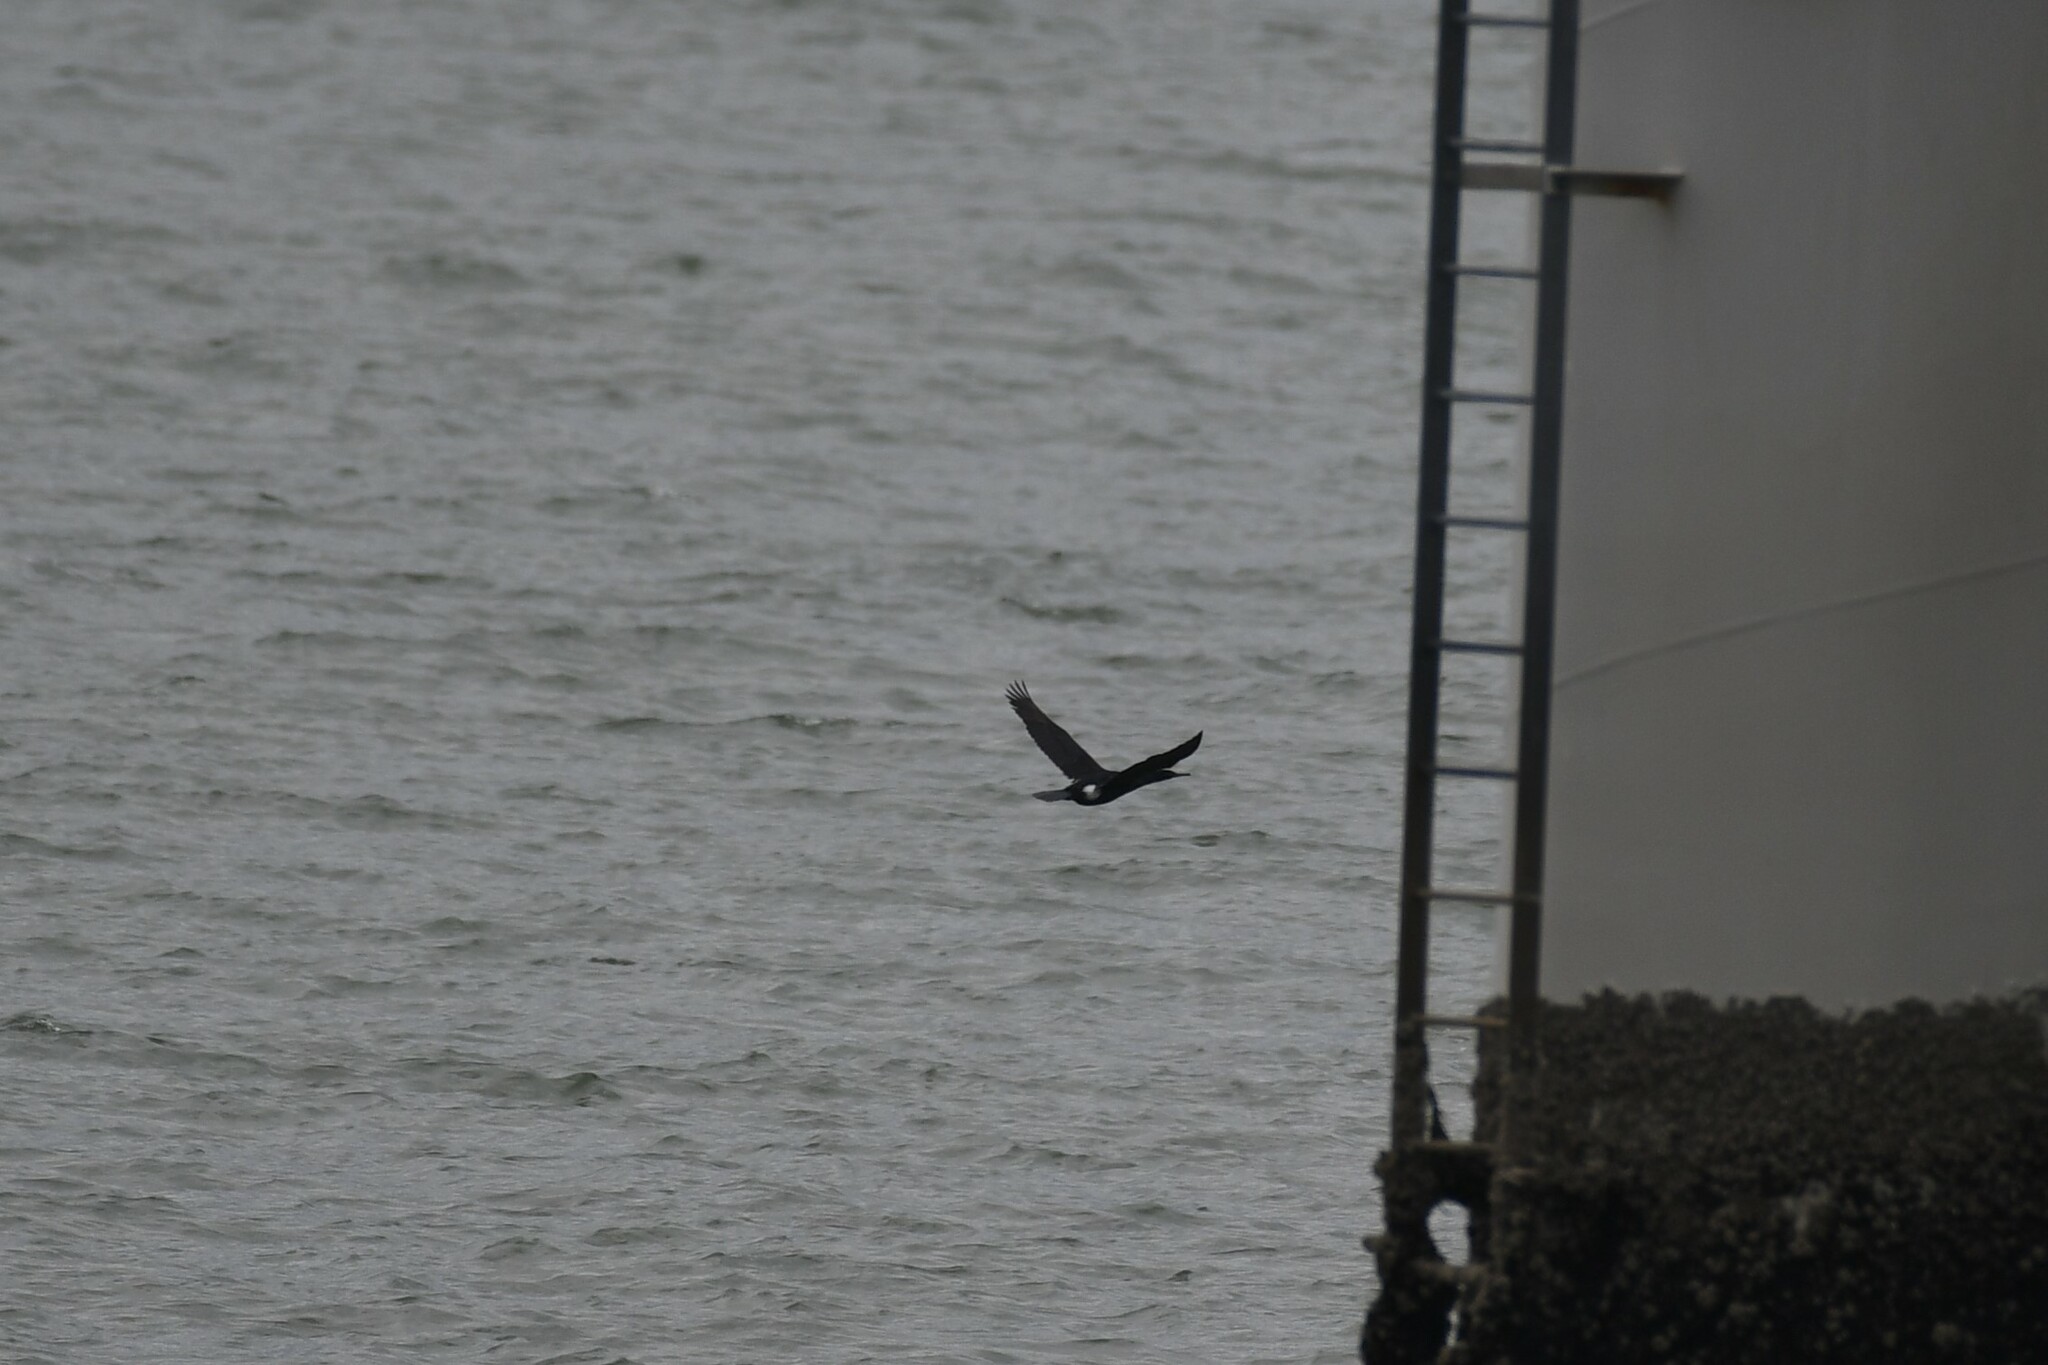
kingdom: Animalia
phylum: Chordata
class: Aves
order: Suliformes
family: Phalacrocoracidae
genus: Phalacrocorax
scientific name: Phalacrocorax pelagicus
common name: Pelagic cormorant
